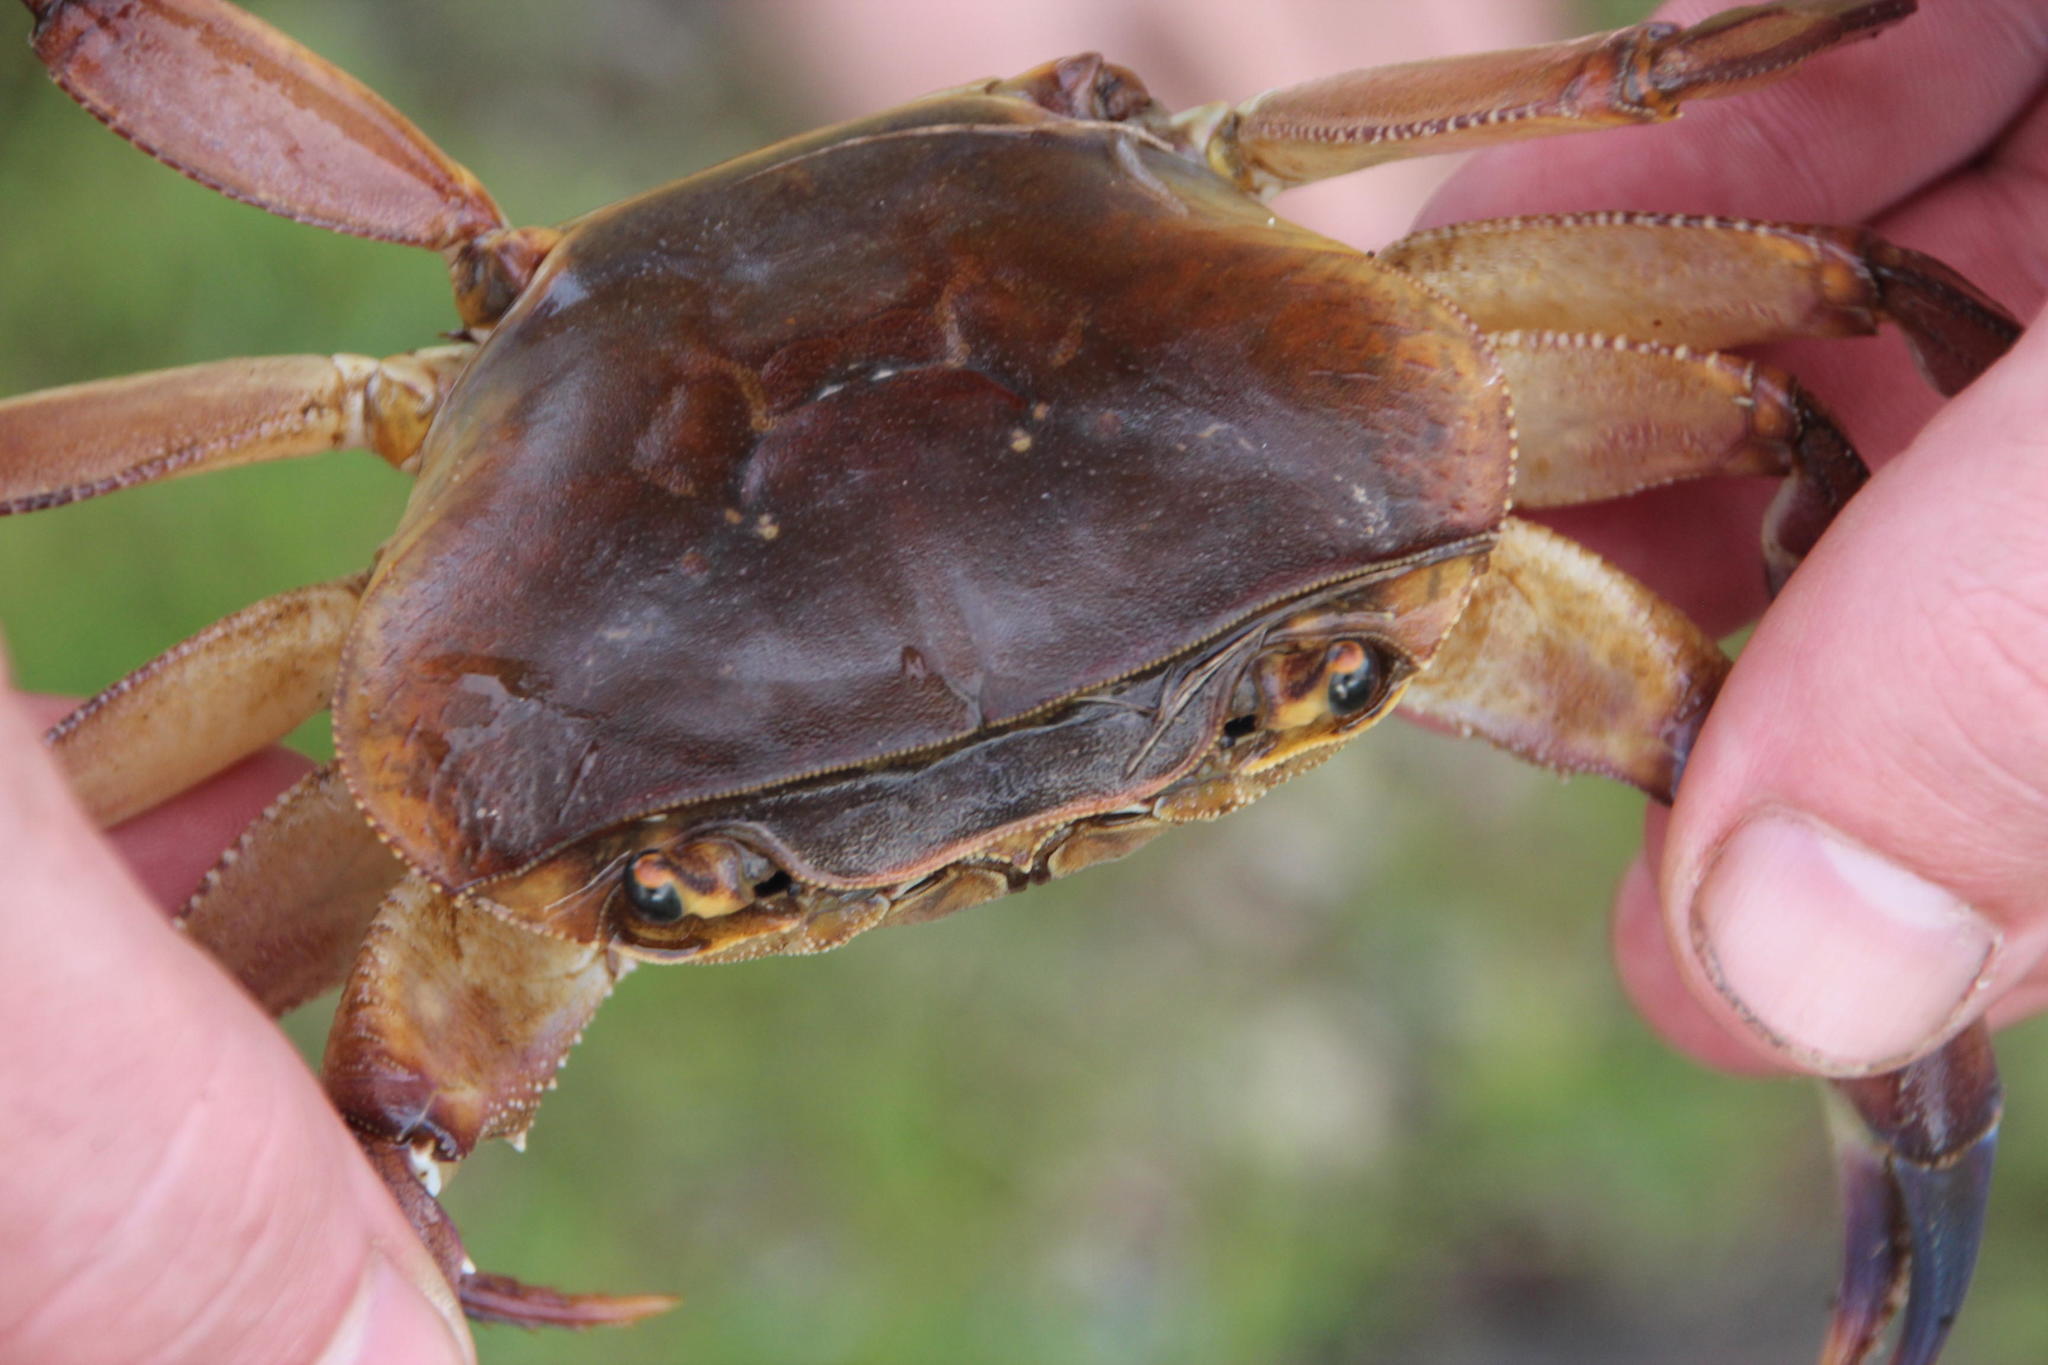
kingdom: Animalia
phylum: Arthropoda
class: Malacostraca
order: Decapoda
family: Potamonautidae
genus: Potamonautes
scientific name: Potamonautes danielsi
